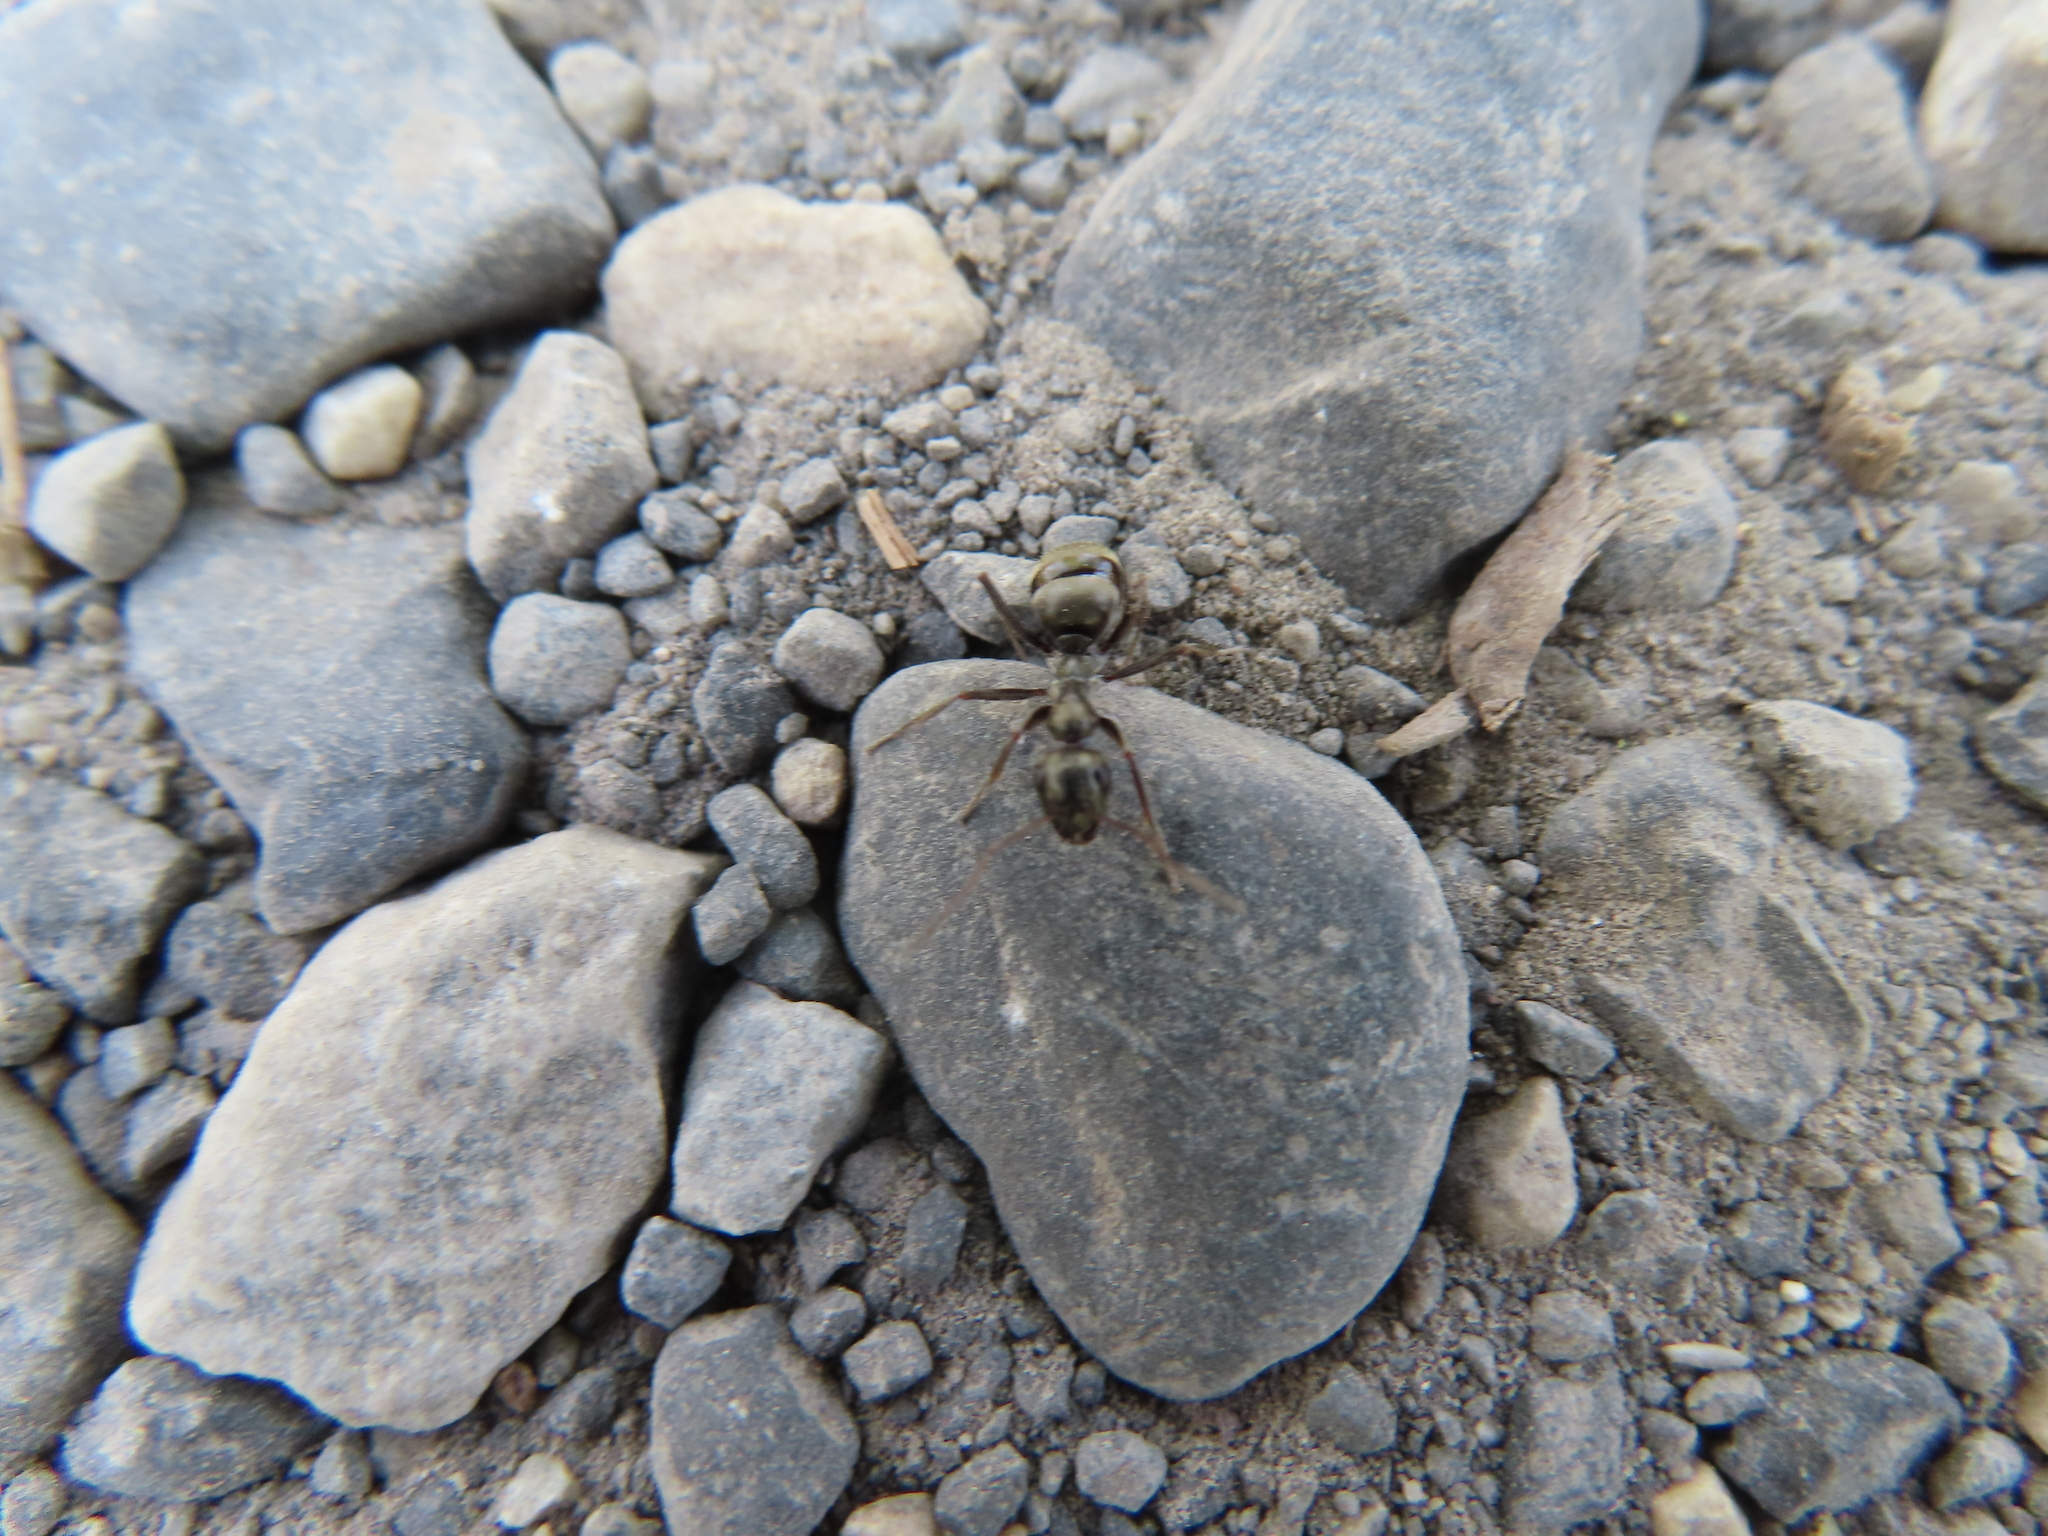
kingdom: Animalia
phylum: Arthropoda
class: Insecta
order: Hymenoptera
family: Formicidae
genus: Camponotus
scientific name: Camponotus pennsylvanicus
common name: Black carpenter ant
